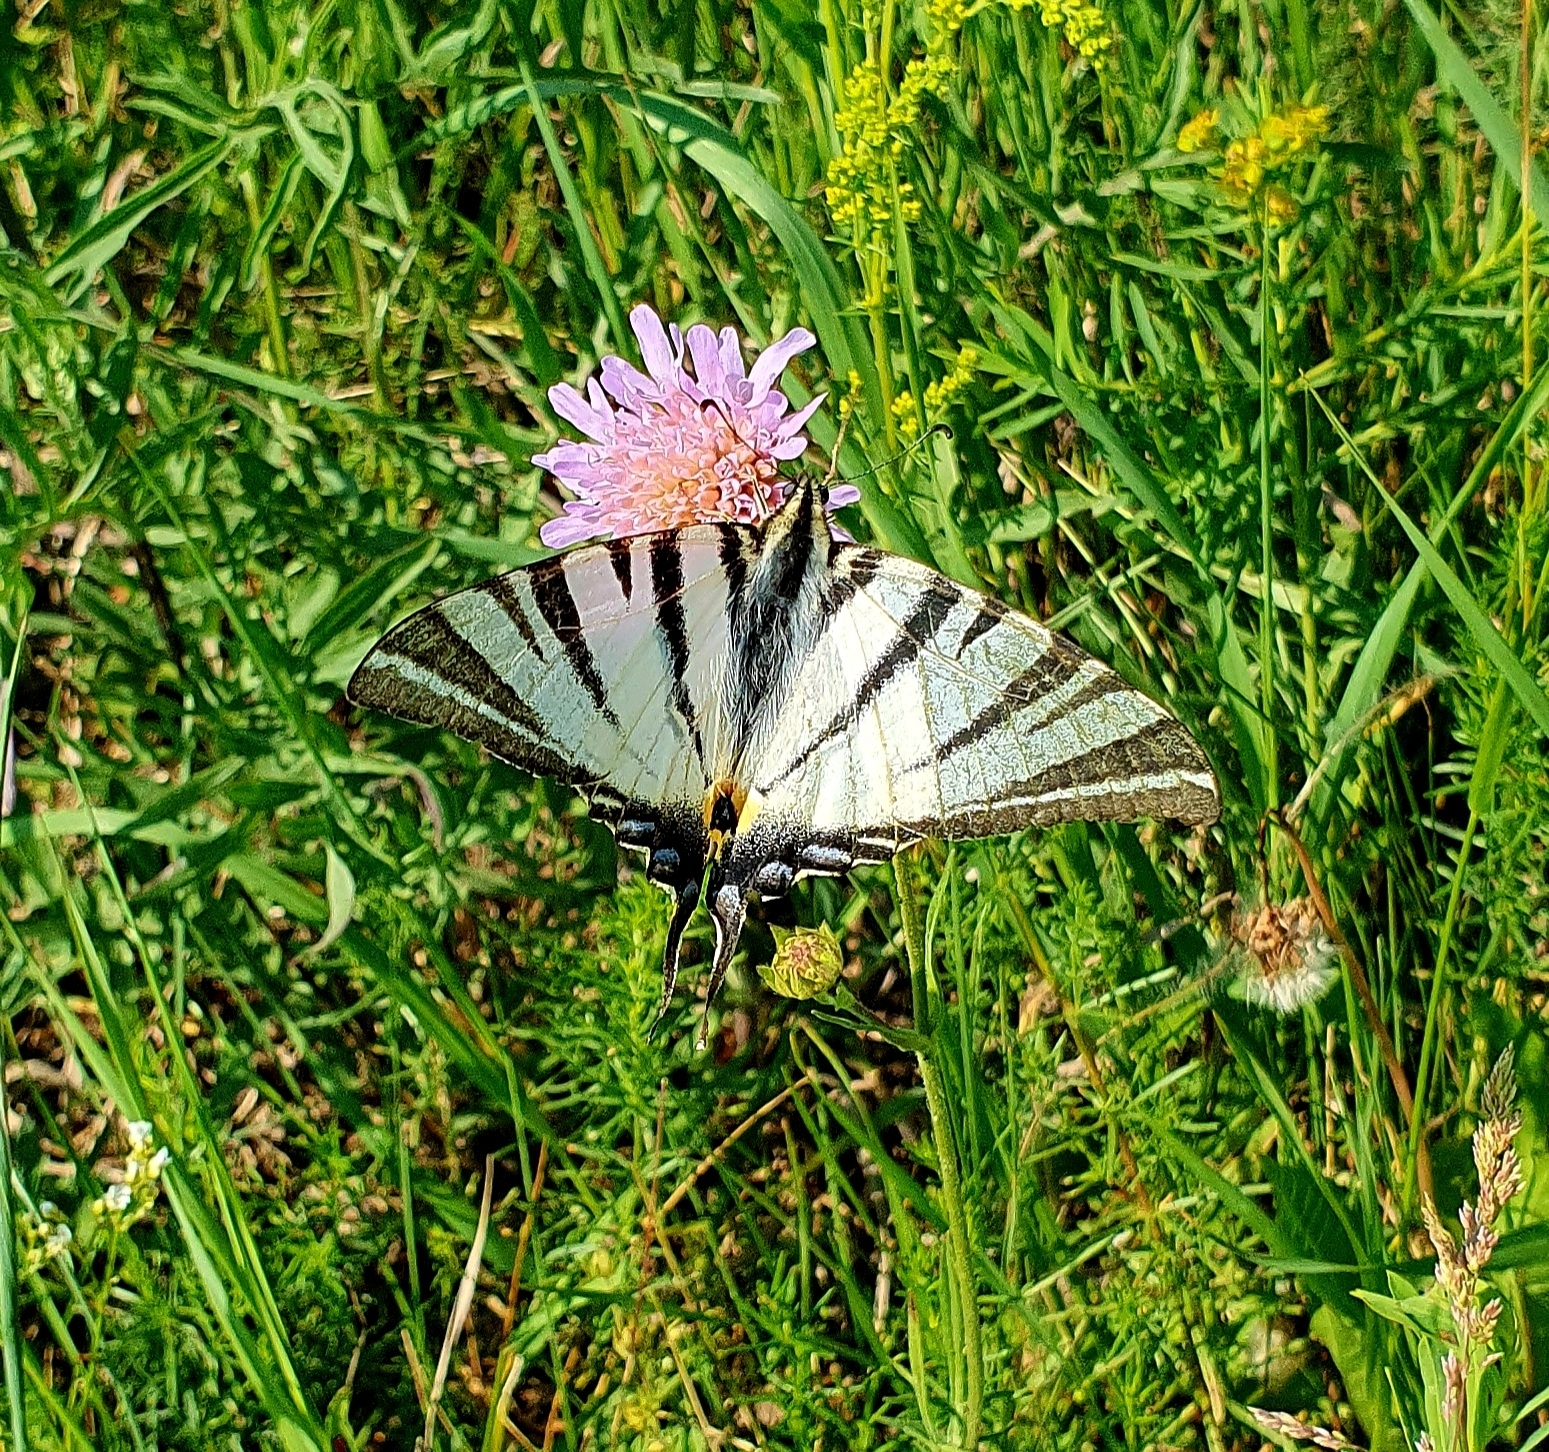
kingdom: Animalia
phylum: Arthropoda
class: Insecta
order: Lepidoptera
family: Papilionidae
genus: Iphiclides
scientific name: Iphiclides podalirius
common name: Scarce swallowtail
